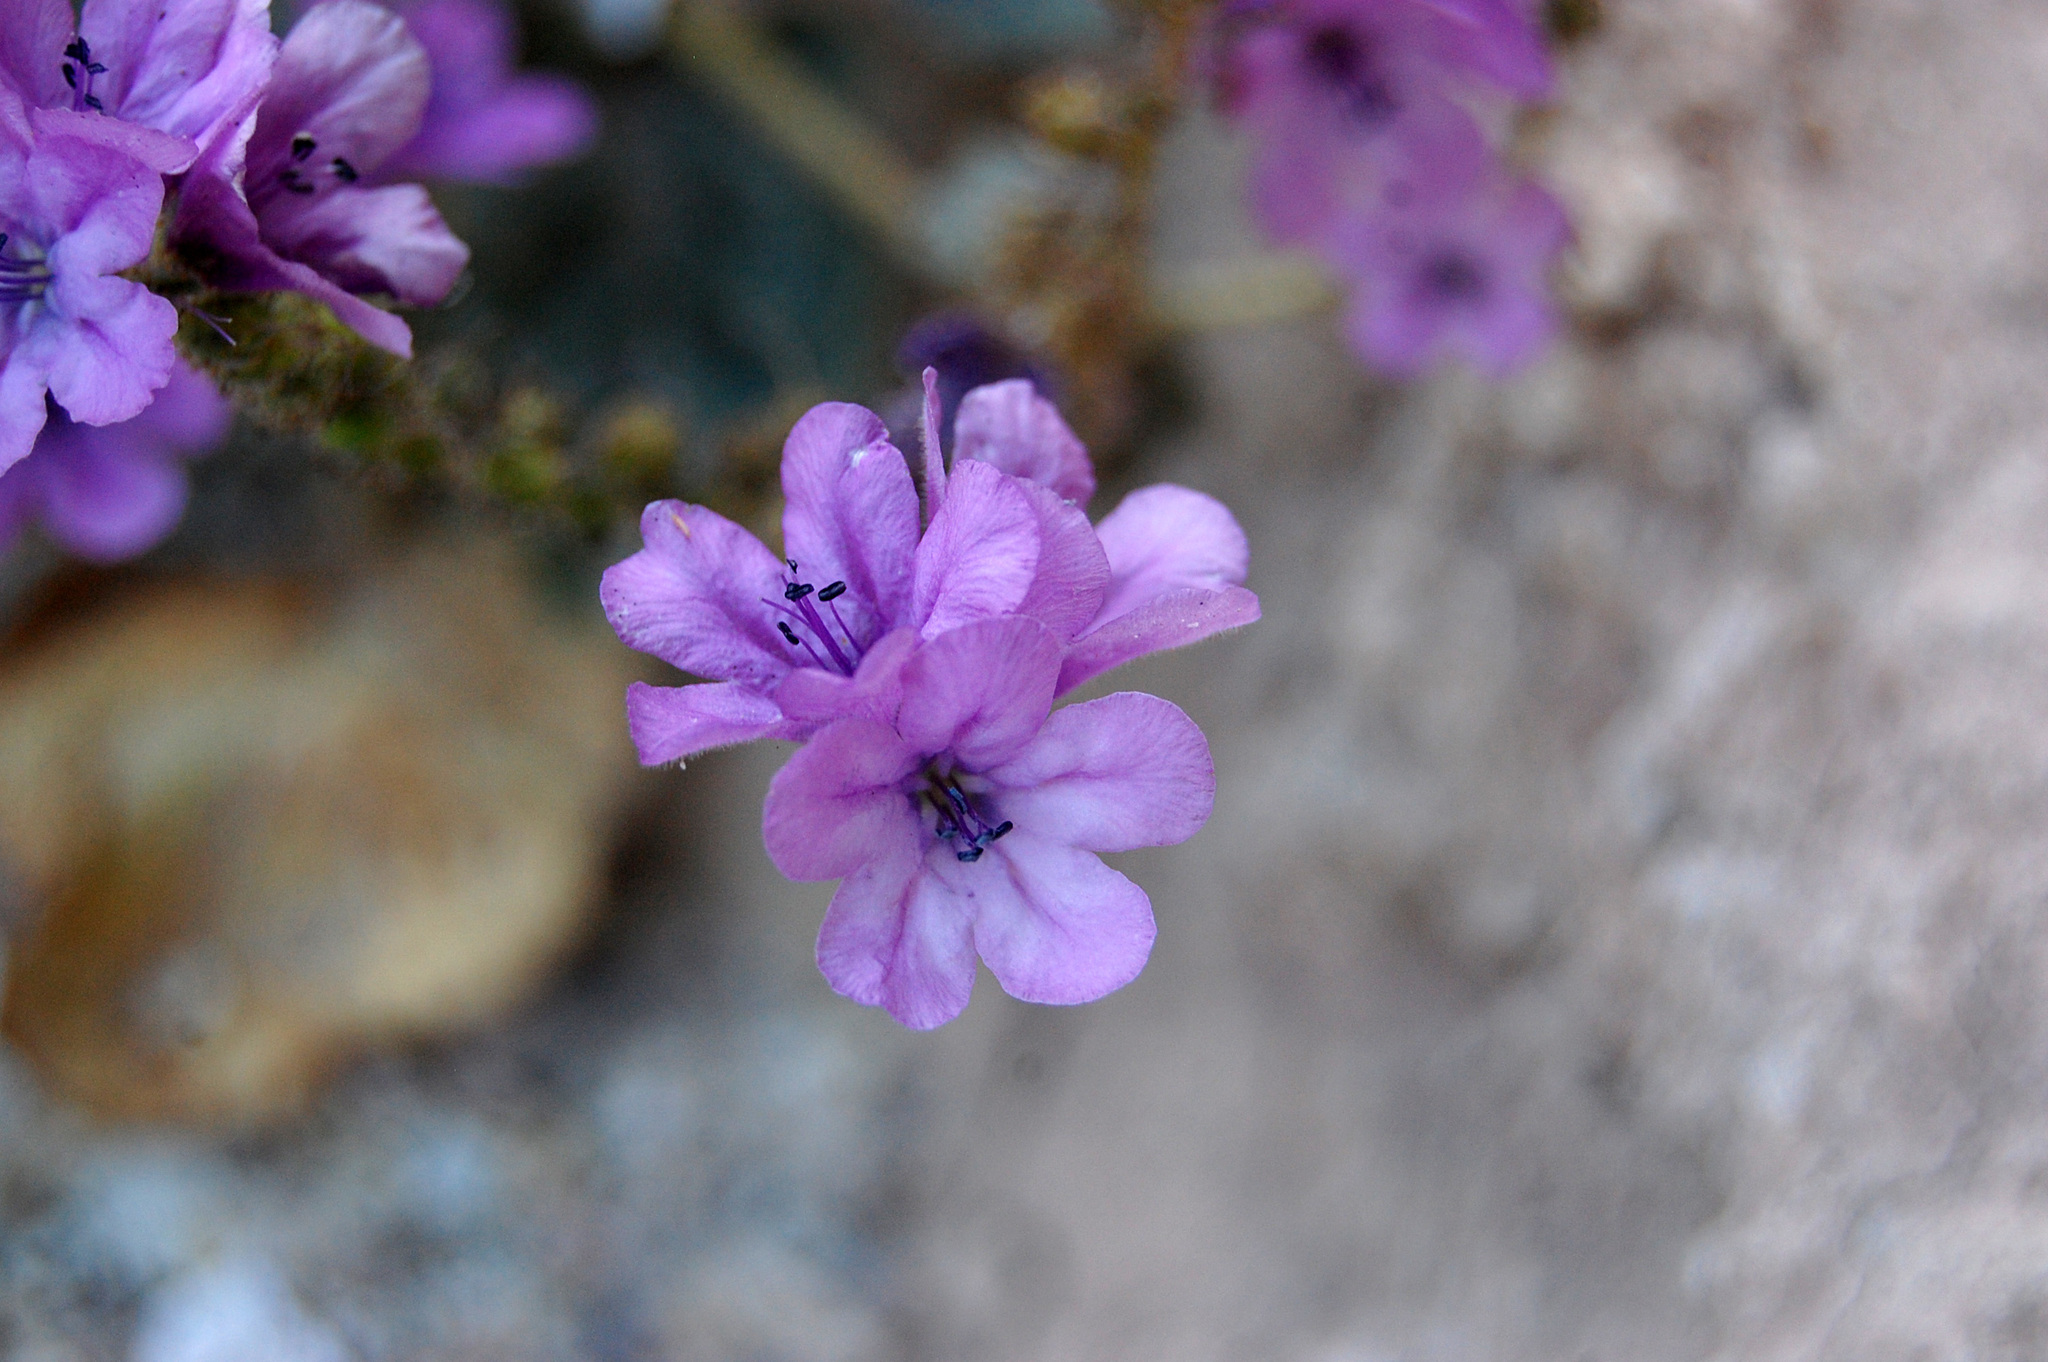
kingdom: Plantae
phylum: Tracheophyta
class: Magnoliopsida
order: Boraginales
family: Hydrophyllaceae
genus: Phacelia
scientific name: Phacelia calthifolia
